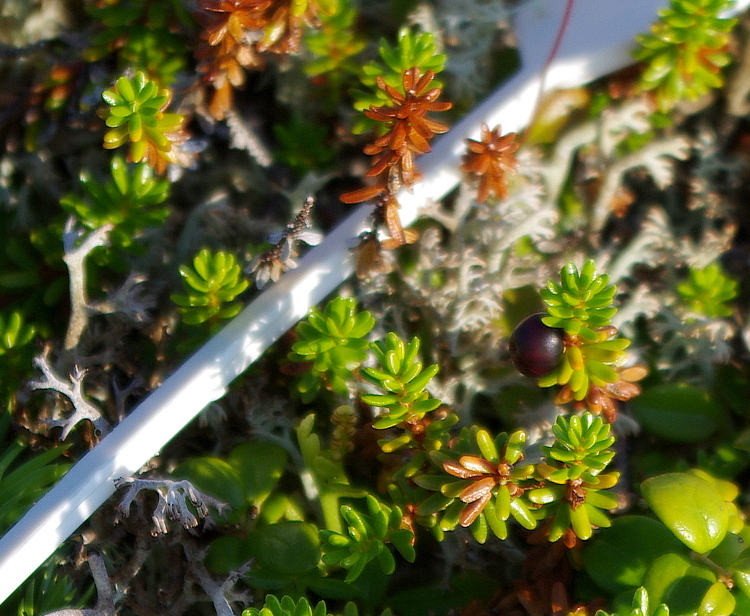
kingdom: Plantae
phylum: Tracheophyta
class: Magnoliopsida
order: Ericales
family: Ericaceae
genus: Empetrum
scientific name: Empetrum nigrum
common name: Black crowberry
